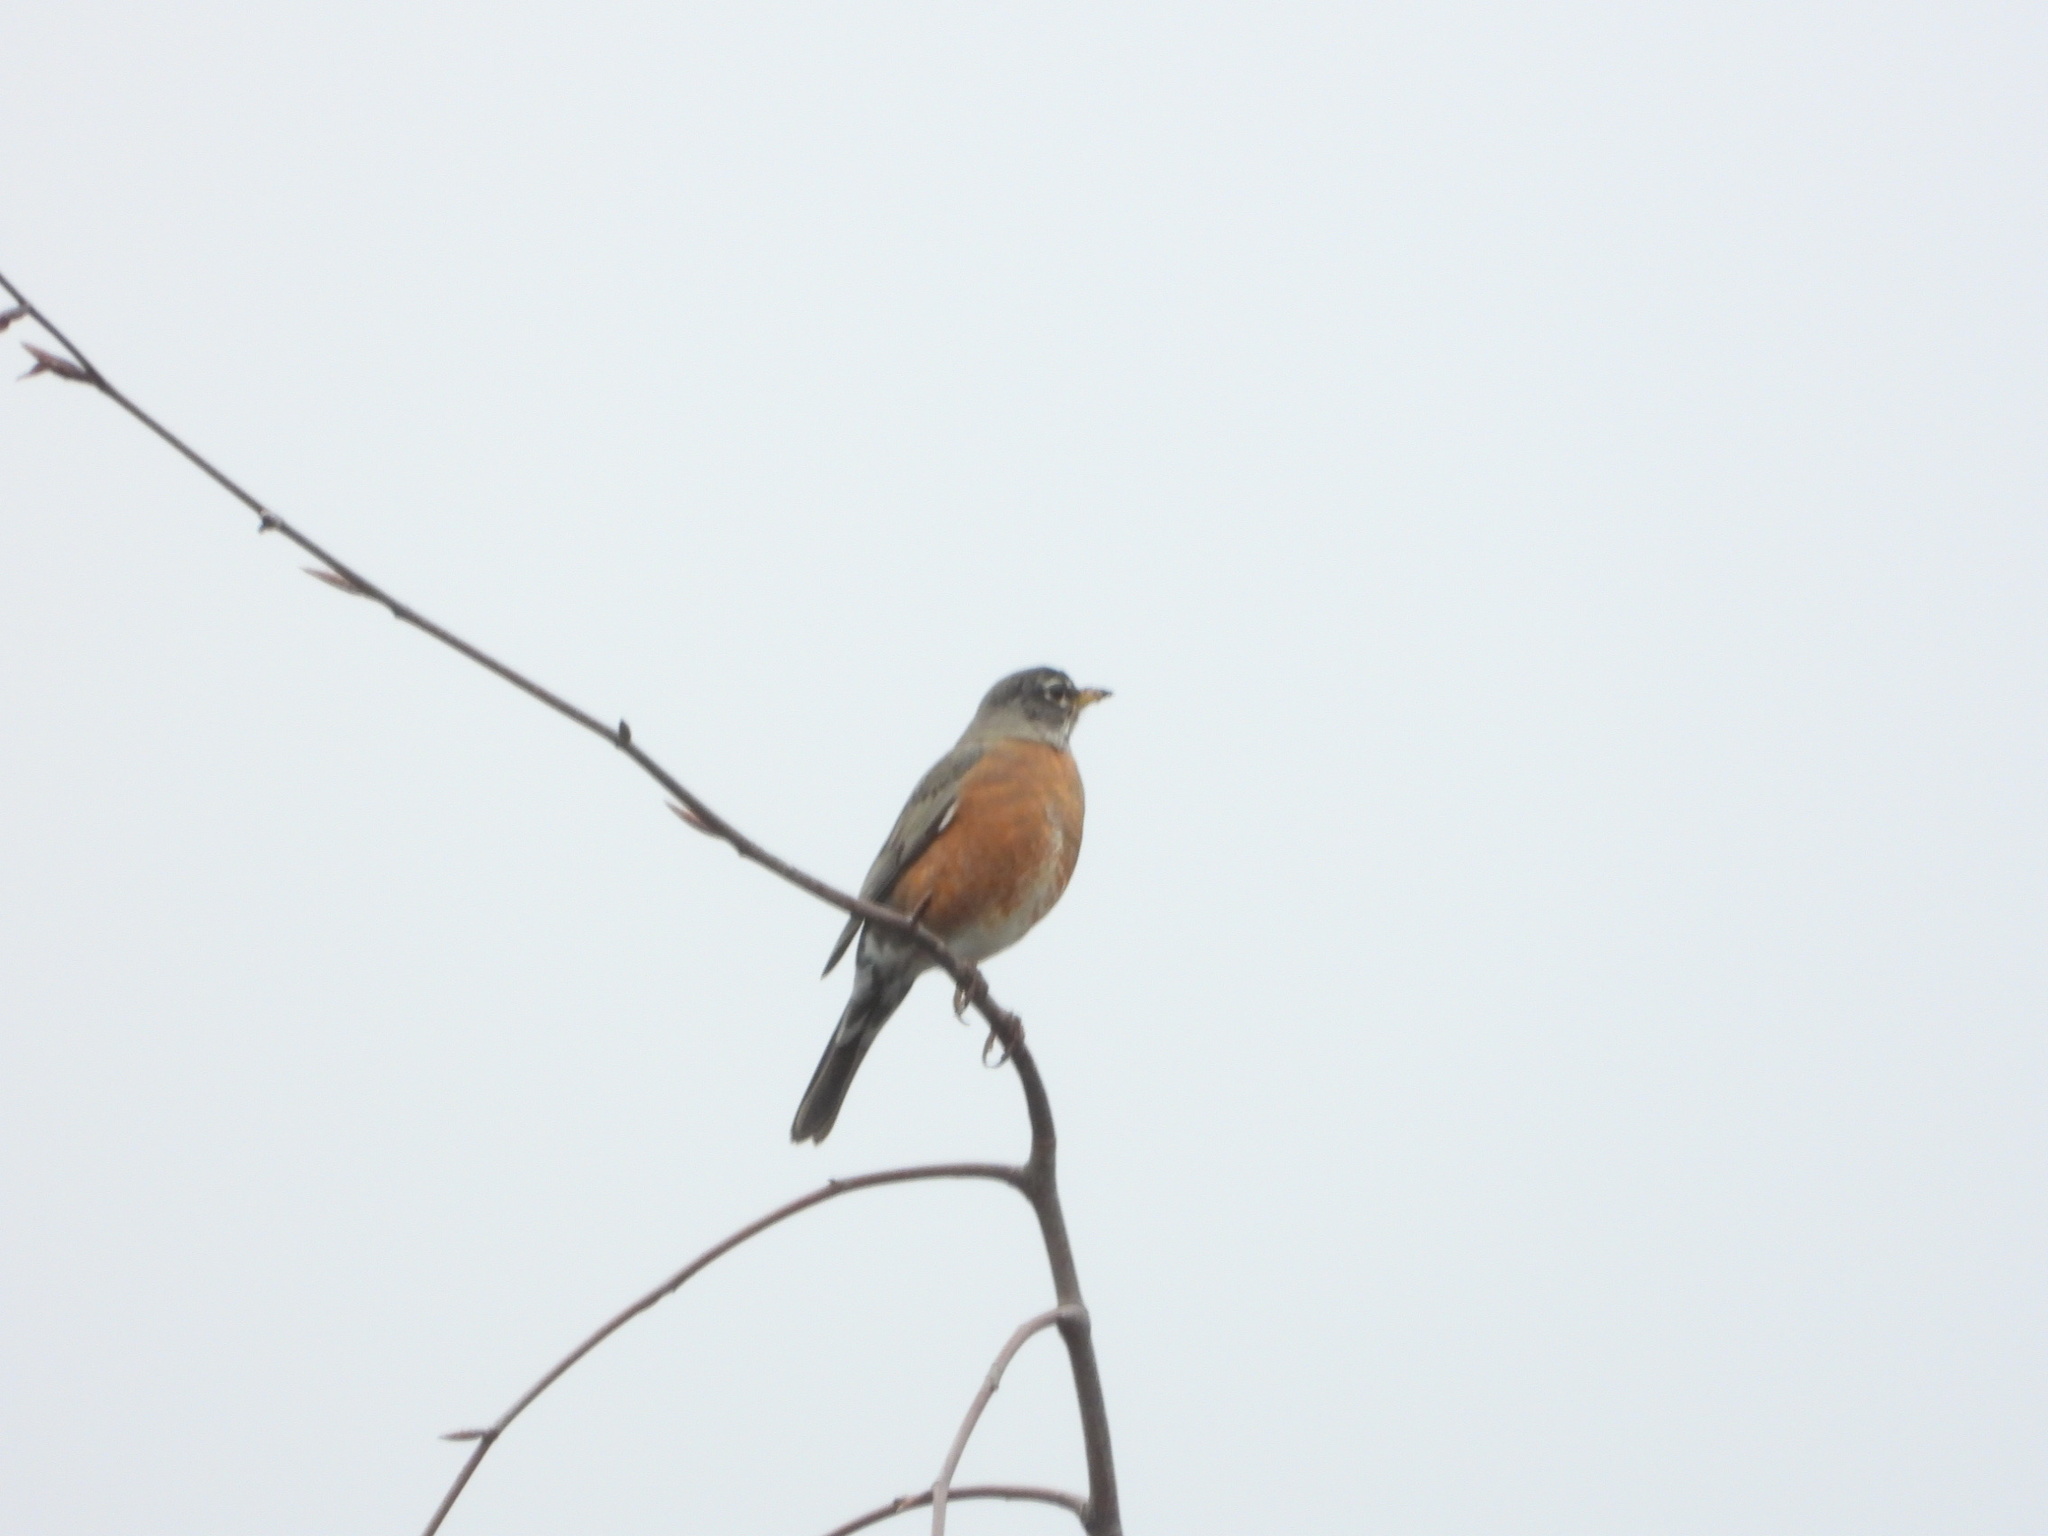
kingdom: Animalia
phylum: Chordata
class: Aves
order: Passeriformes
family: Turdidae
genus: Turdus
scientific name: Turdus migratorius
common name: American robin
